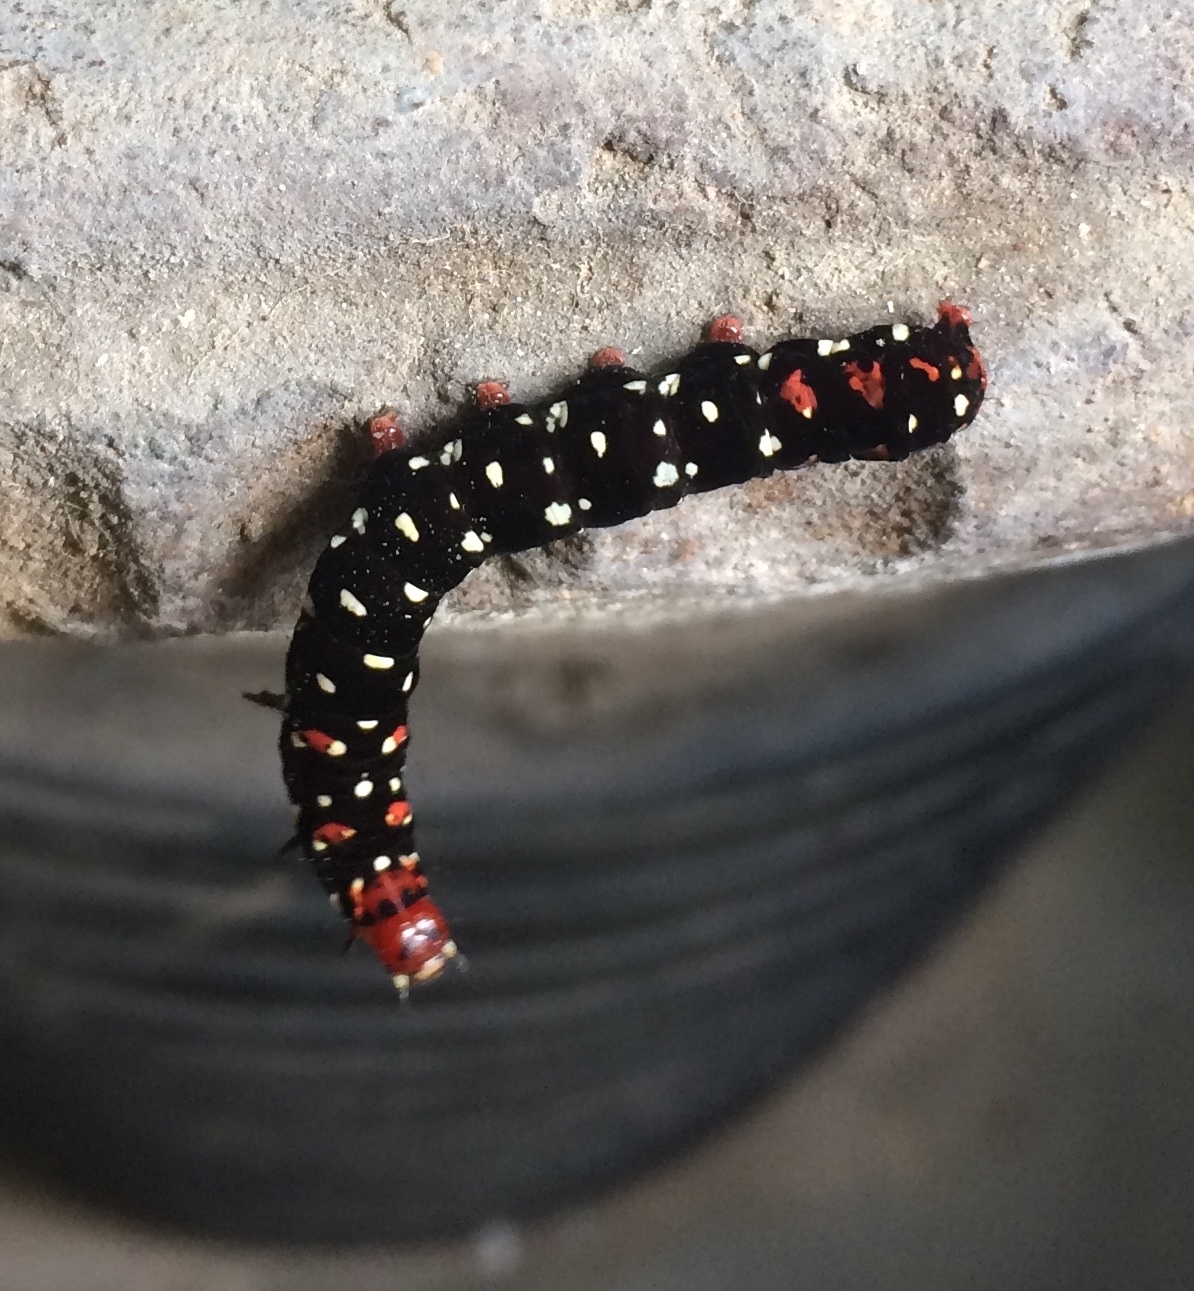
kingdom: Animalia
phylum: Arthropoda
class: Insecta
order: Lepidoptera
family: Noctuidae
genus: Polytela
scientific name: Polytela gloriosae
